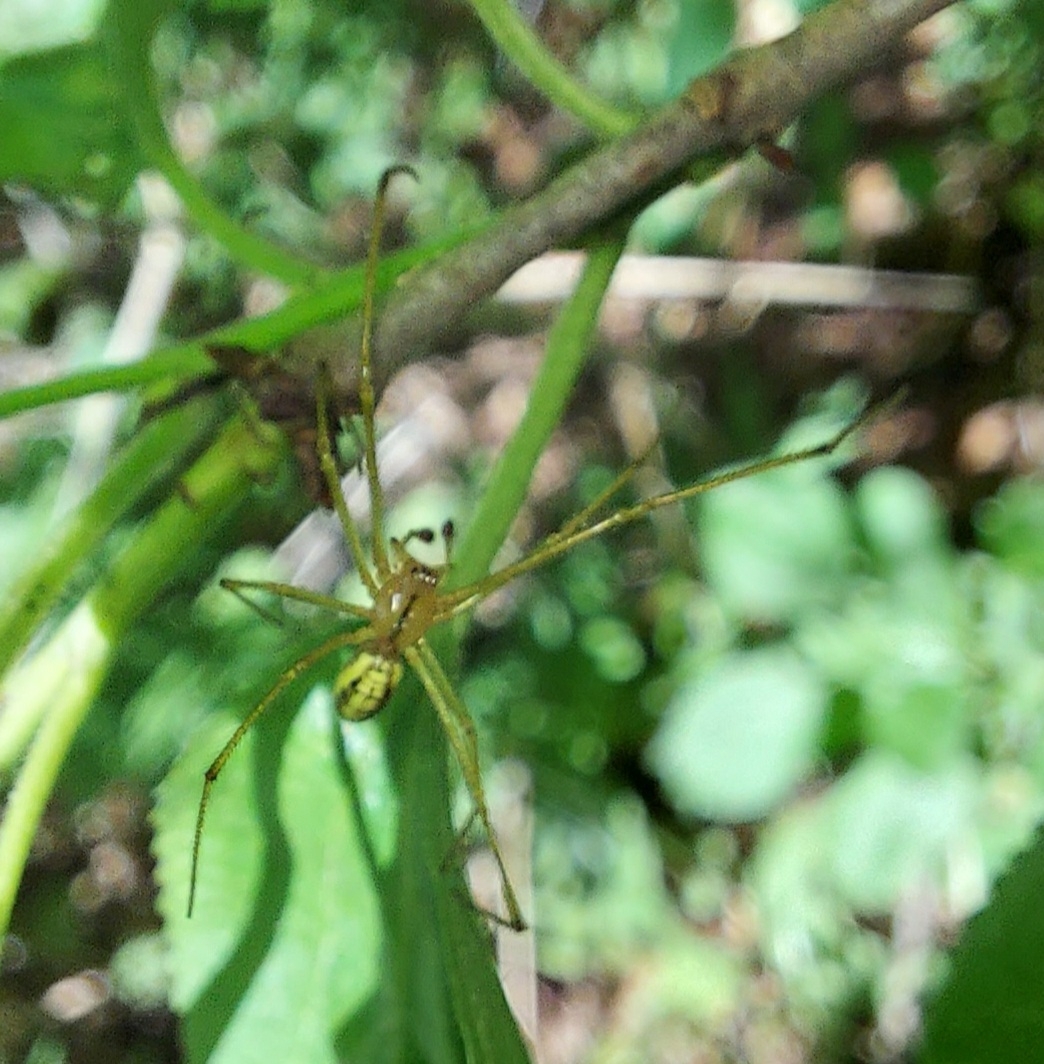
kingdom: Animalia
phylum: Arthropoda
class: Arachnida
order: Araneae
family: Theridiidae
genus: Enoplognatha
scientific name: Enoplognatha ovata
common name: Common candy-striped spider
